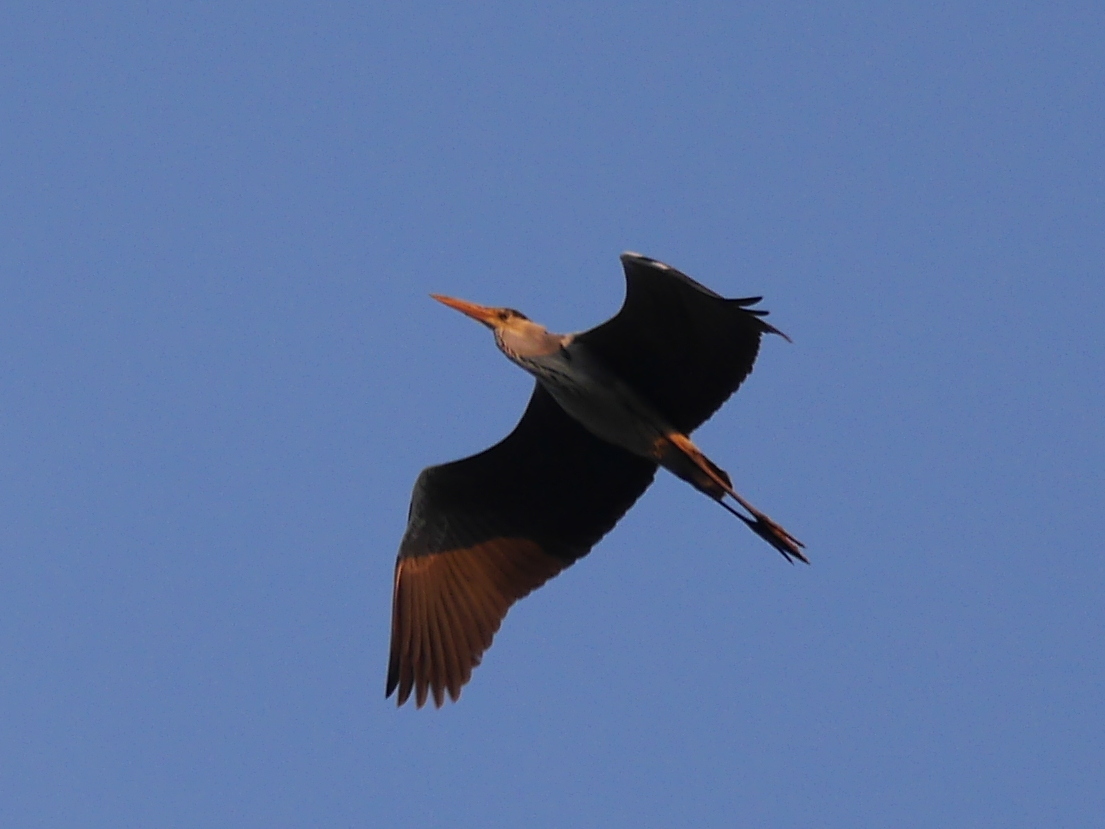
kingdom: Animalia
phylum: Chordata
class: Aves
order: Pelecaniformes
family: Ardeidae
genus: Ardea
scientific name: Ardea cinerea
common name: Grey heron
